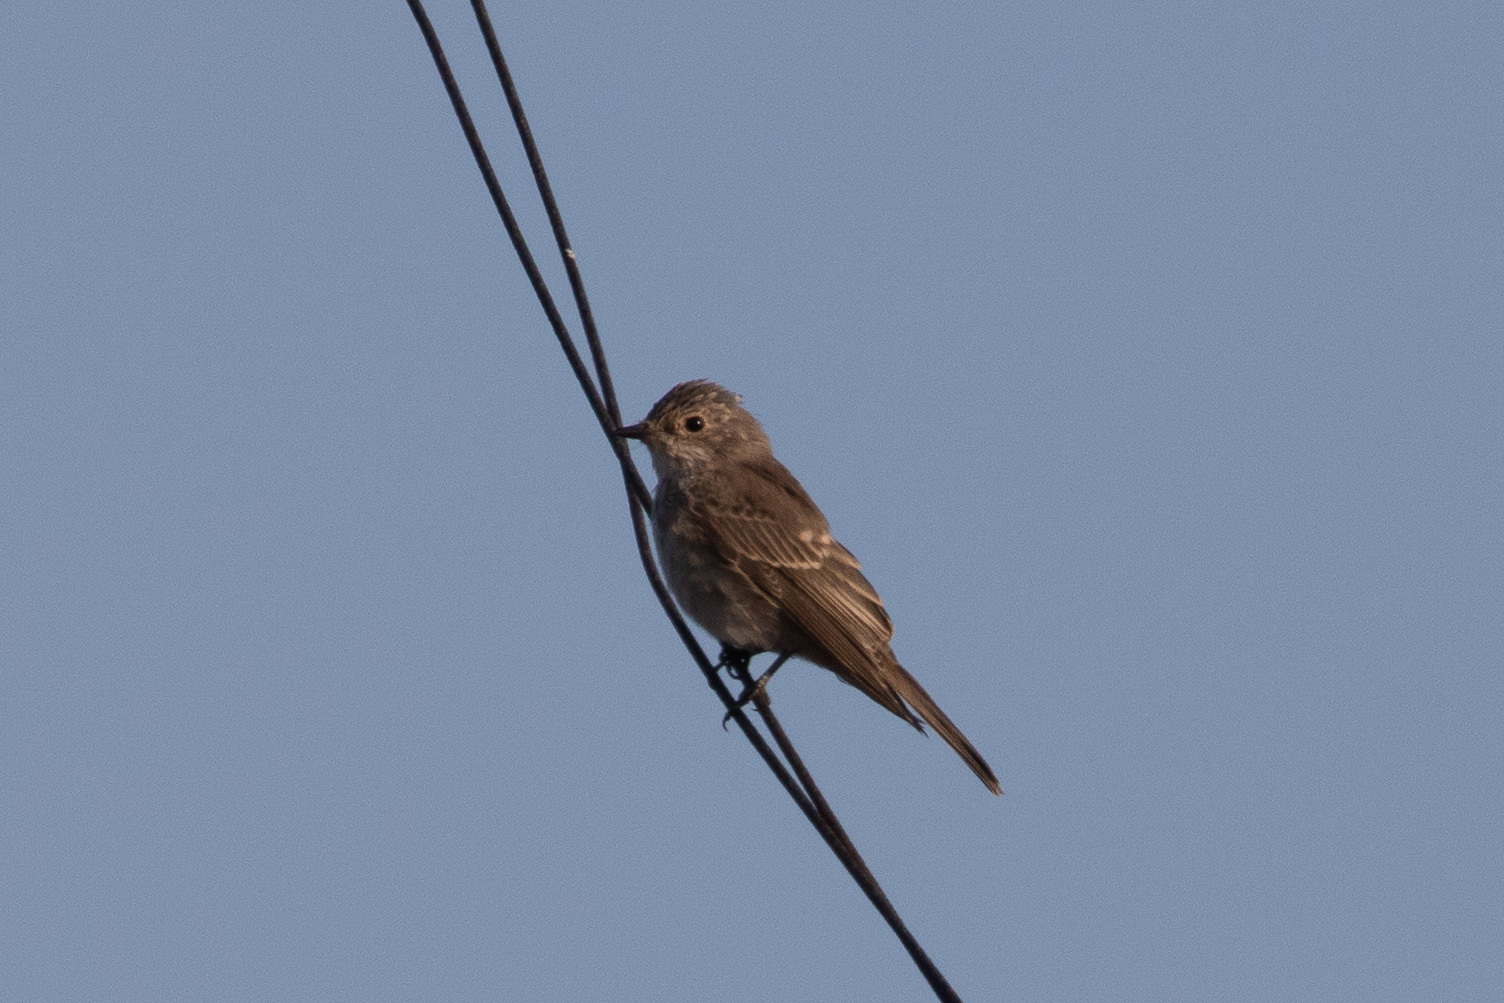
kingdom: Animalia
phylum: Chordata
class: Aves
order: Passeriformes
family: Muscicapidae
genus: Muscicapa
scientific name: Muscicapa striata
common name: Spotted flycatcher
